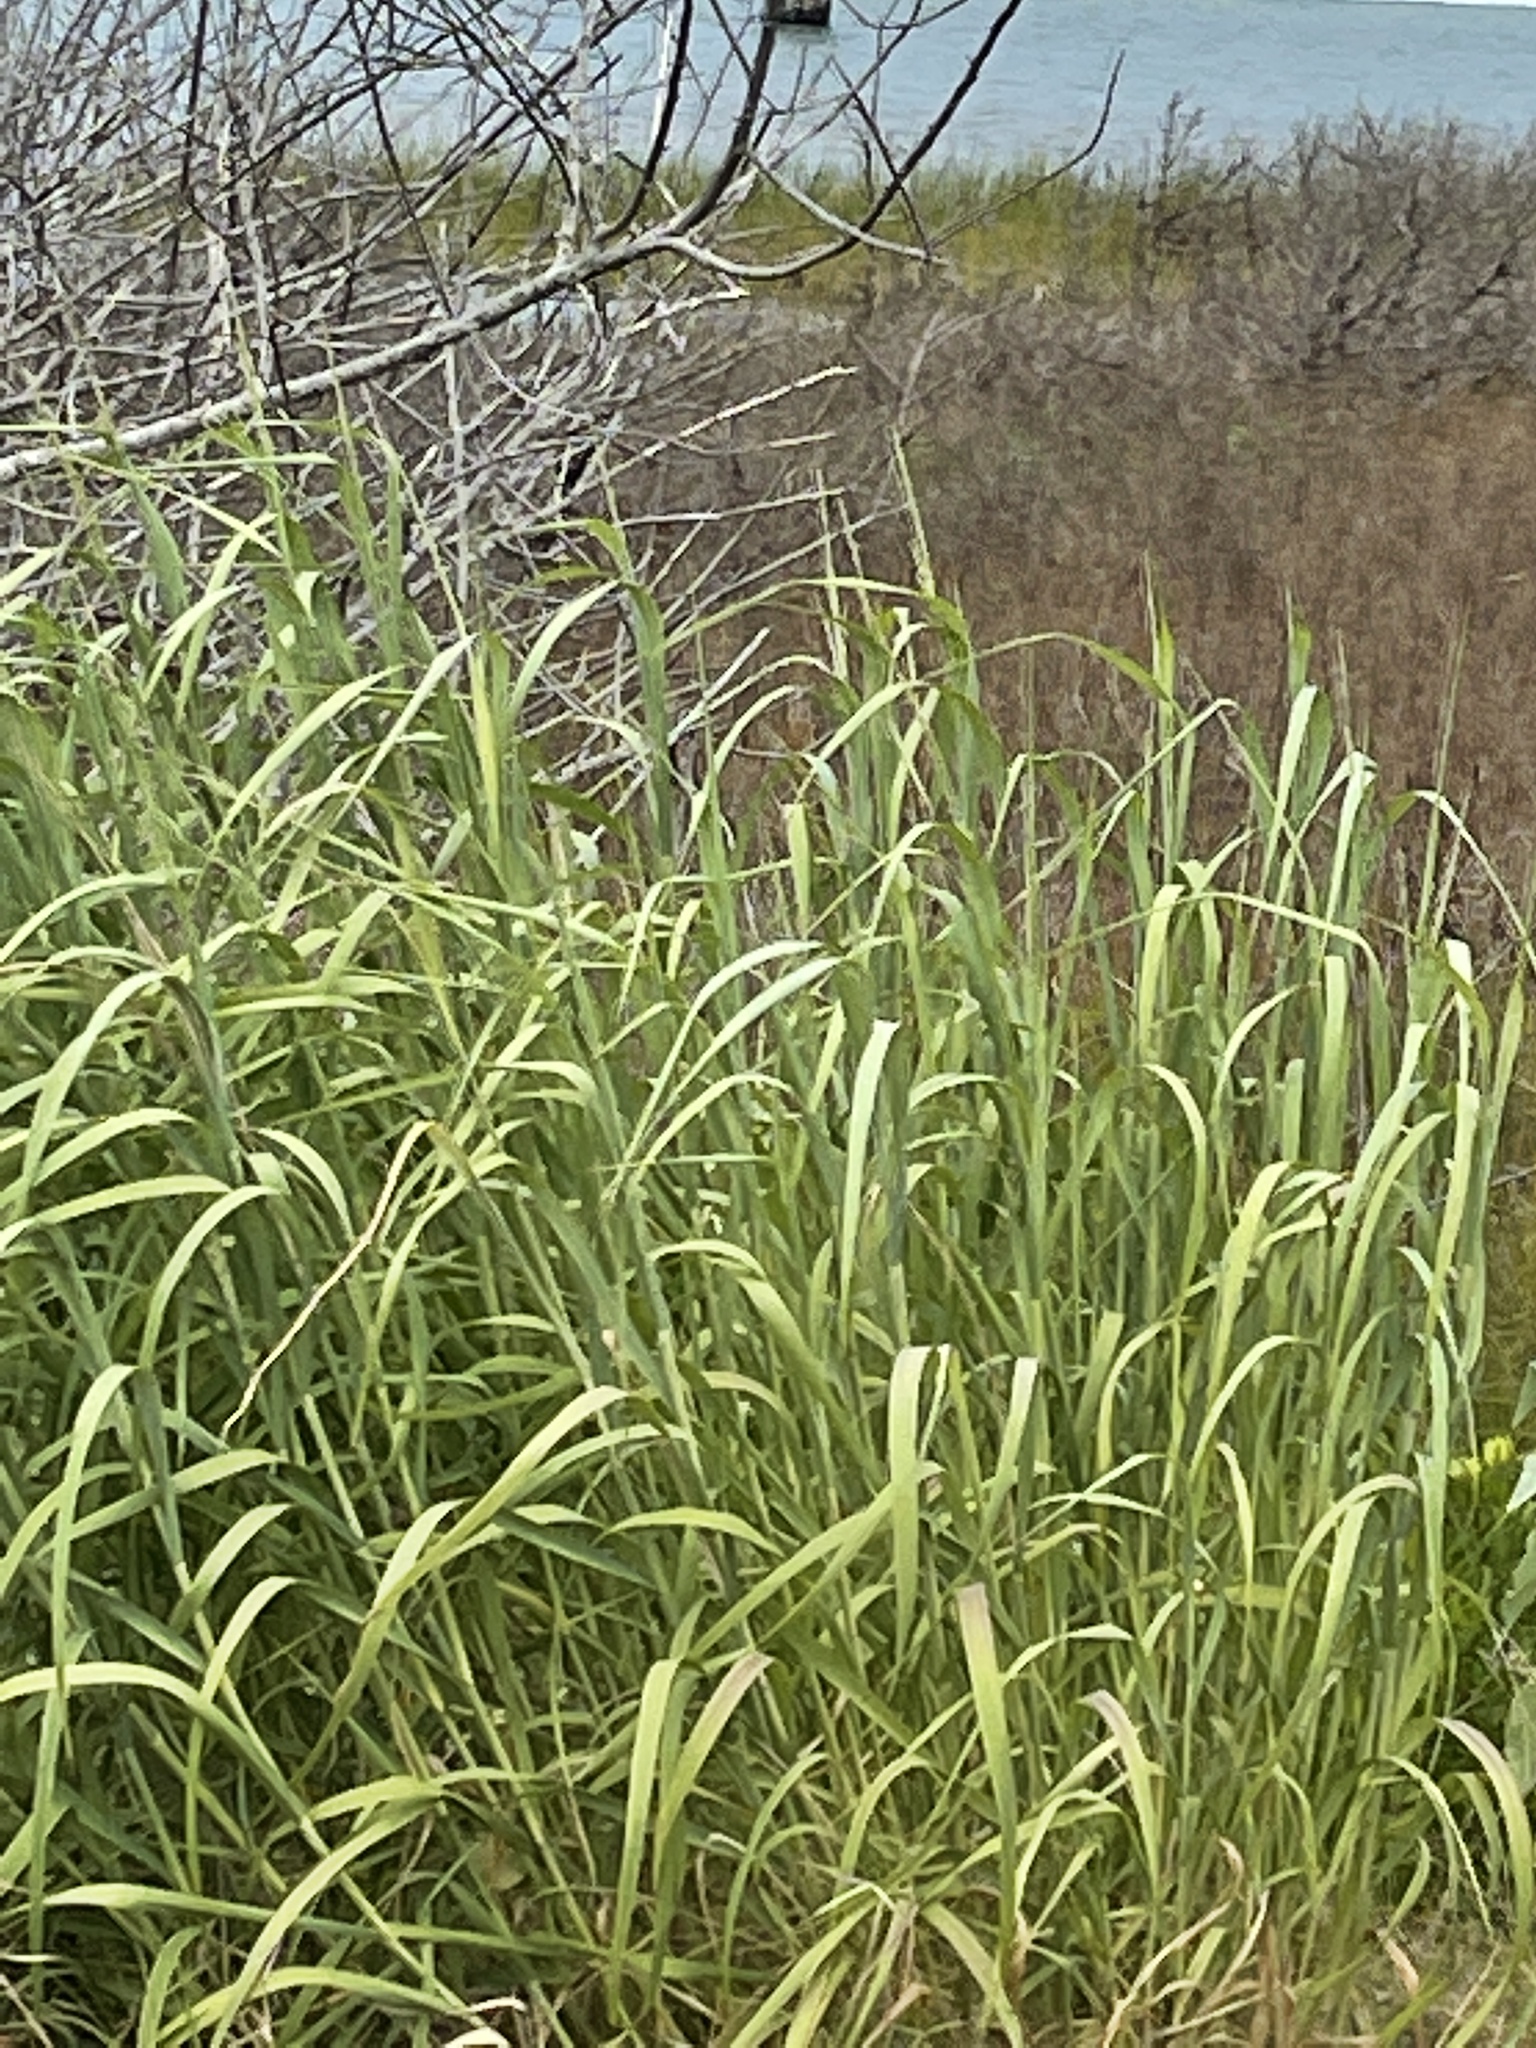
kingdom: Plantae
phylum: Tracheophyta
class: Liliopsida
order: Poales
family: Poaceae
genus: Panicum
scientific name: Panicum virgatum
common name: Switchgrass
